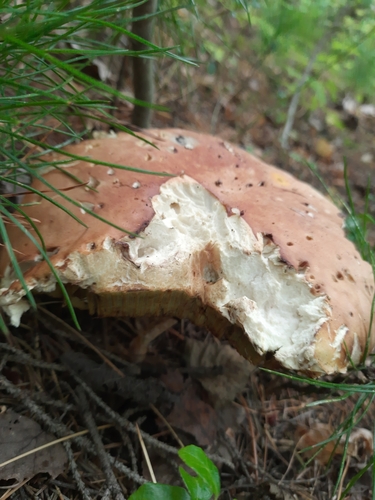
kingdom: Fungi
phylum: Basidiomycota
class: Agaricomycetes
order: Boletales
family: Boletaceae
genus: Boletus
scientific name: Boletus edulis
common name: Cep
